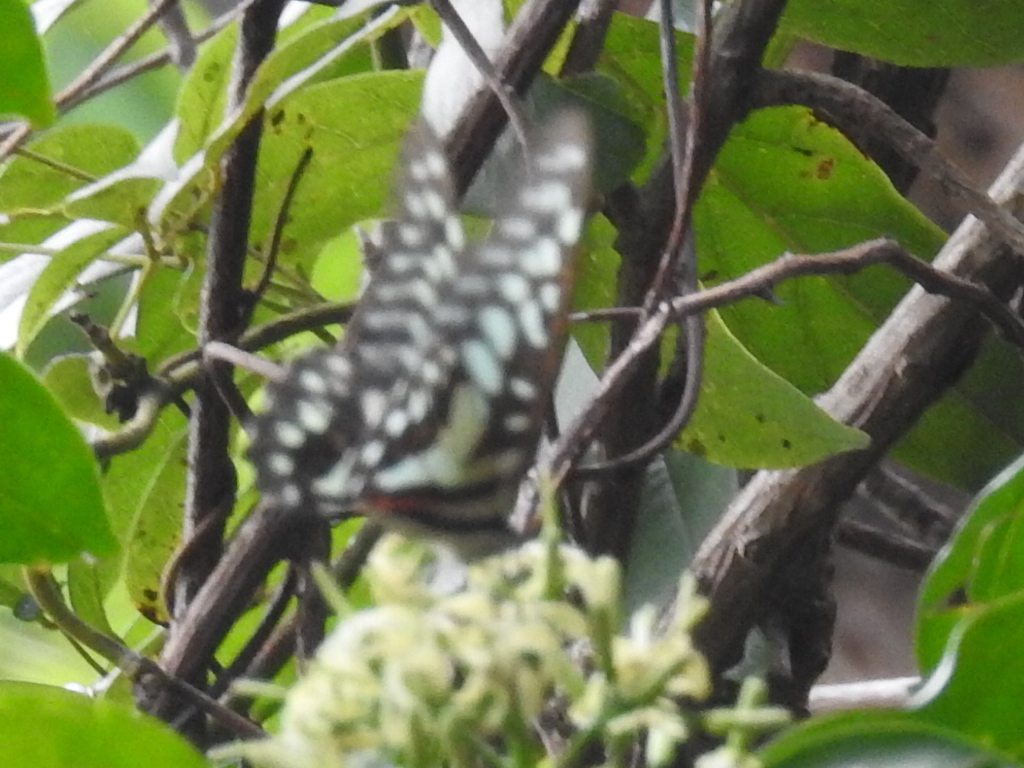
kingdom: Animalia
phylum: Arthropoda
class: Insecta
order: Lepidoptera
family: Papilionidae
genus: Graphium
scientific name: Graphium doson
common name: Common jay
